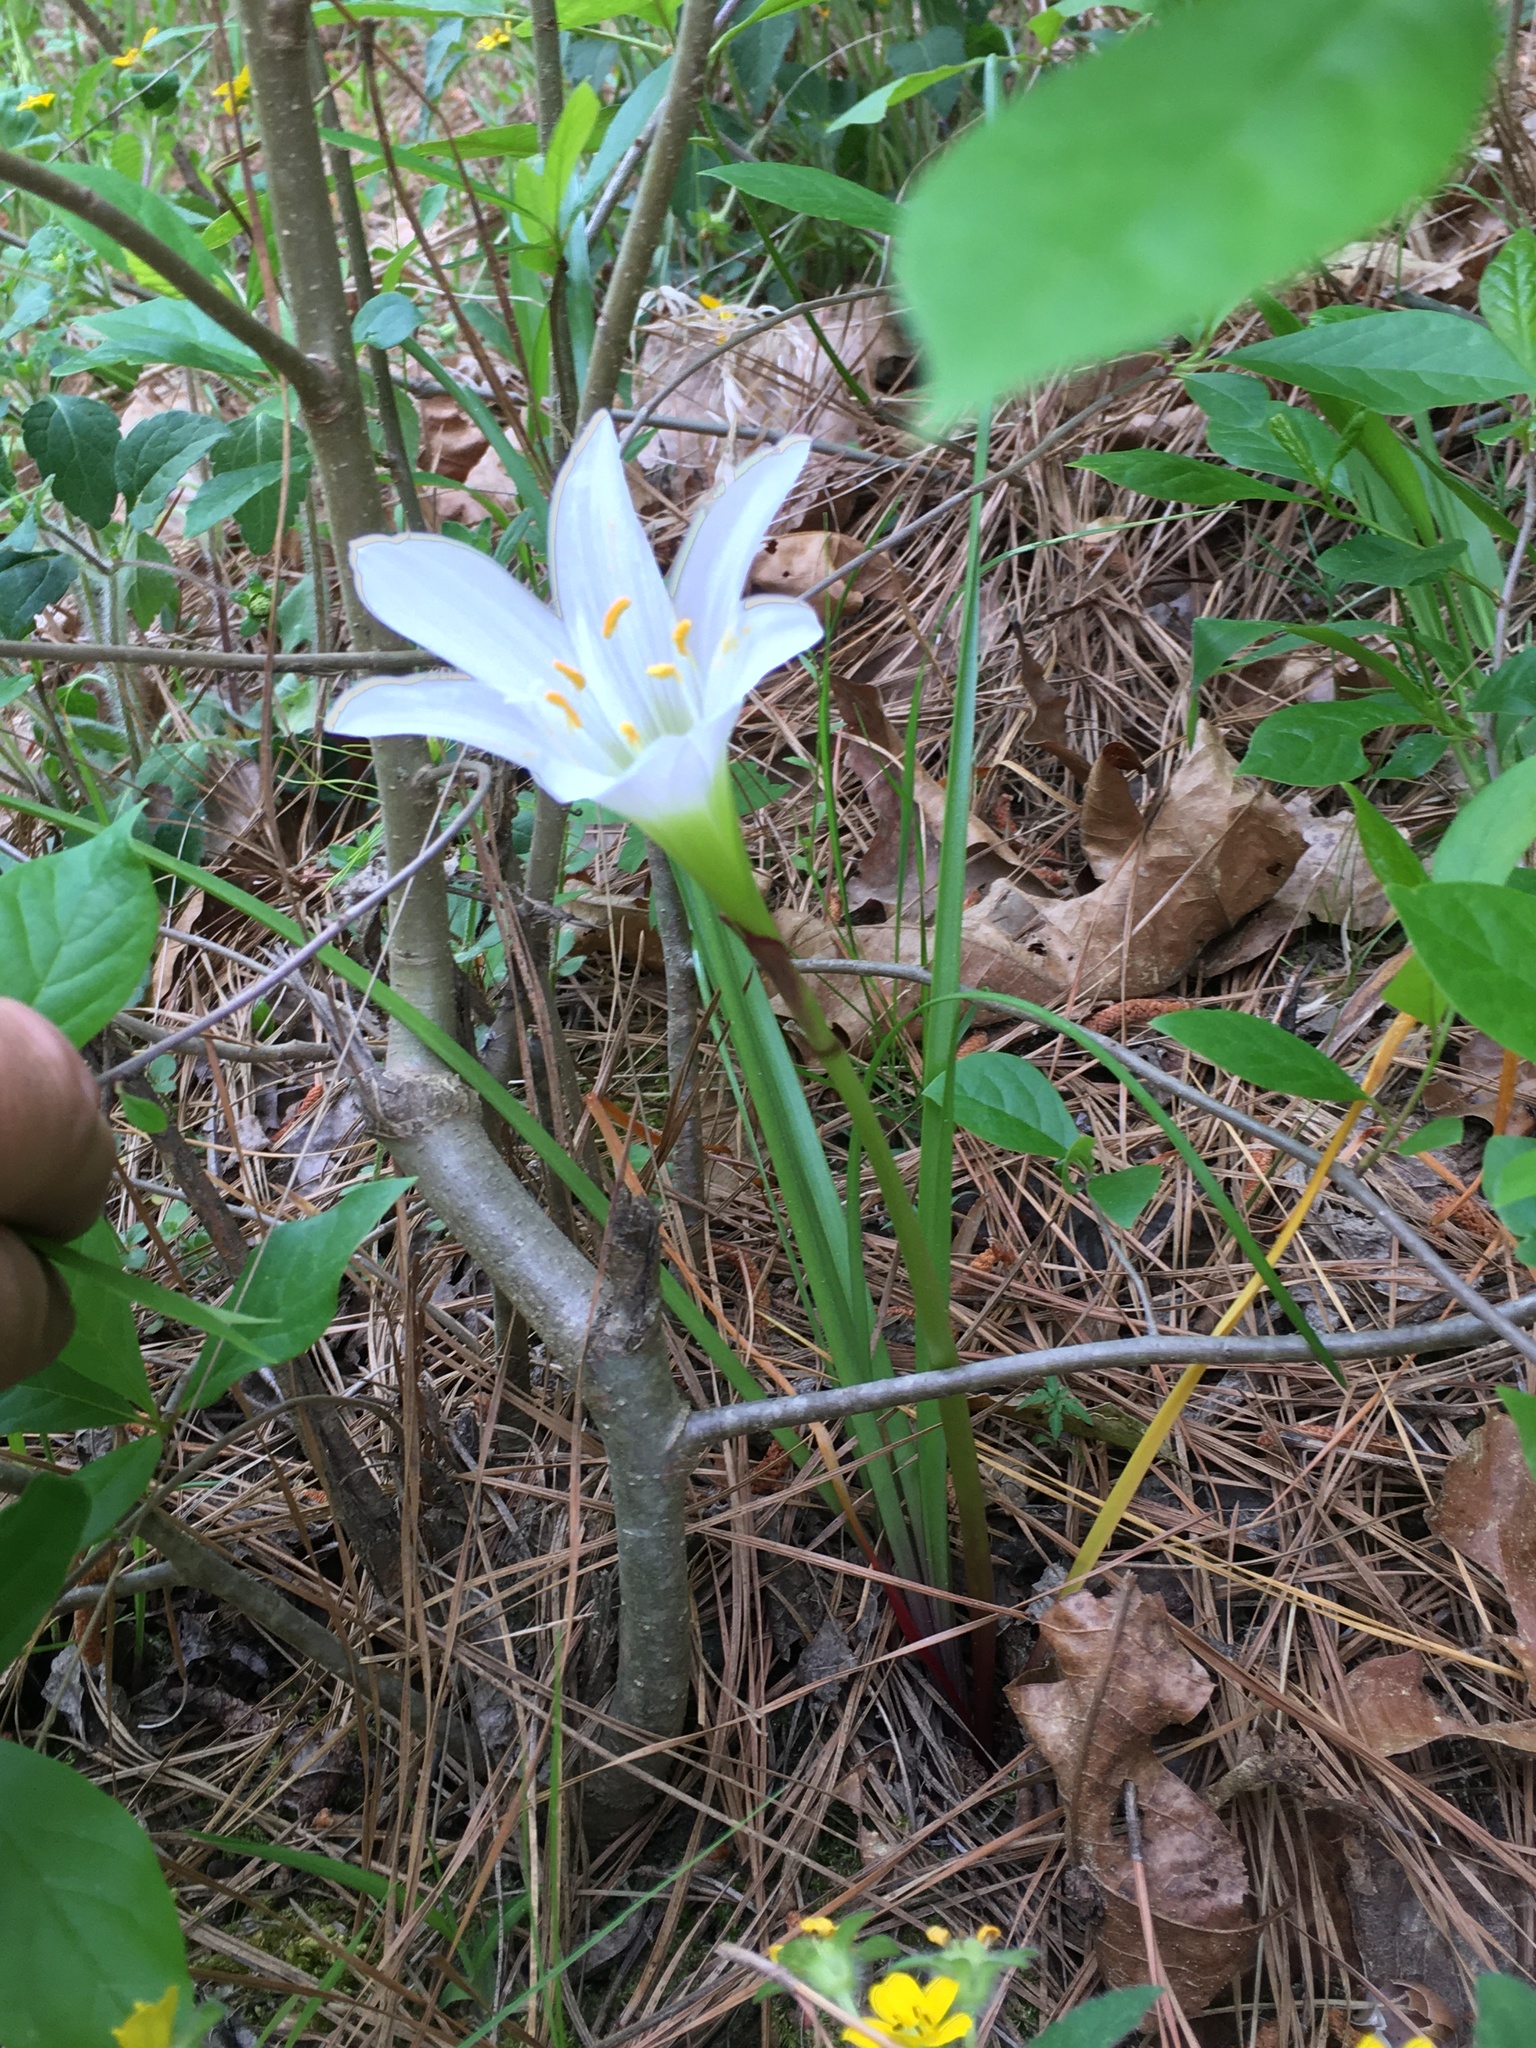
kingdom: Plantae
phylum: Tracheophyta
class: Liliopsida
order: Asparagales
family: Amaryllidaceae
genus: Zephyranthes
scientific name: Zephyranthes atamasco
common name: Atamasco lily
